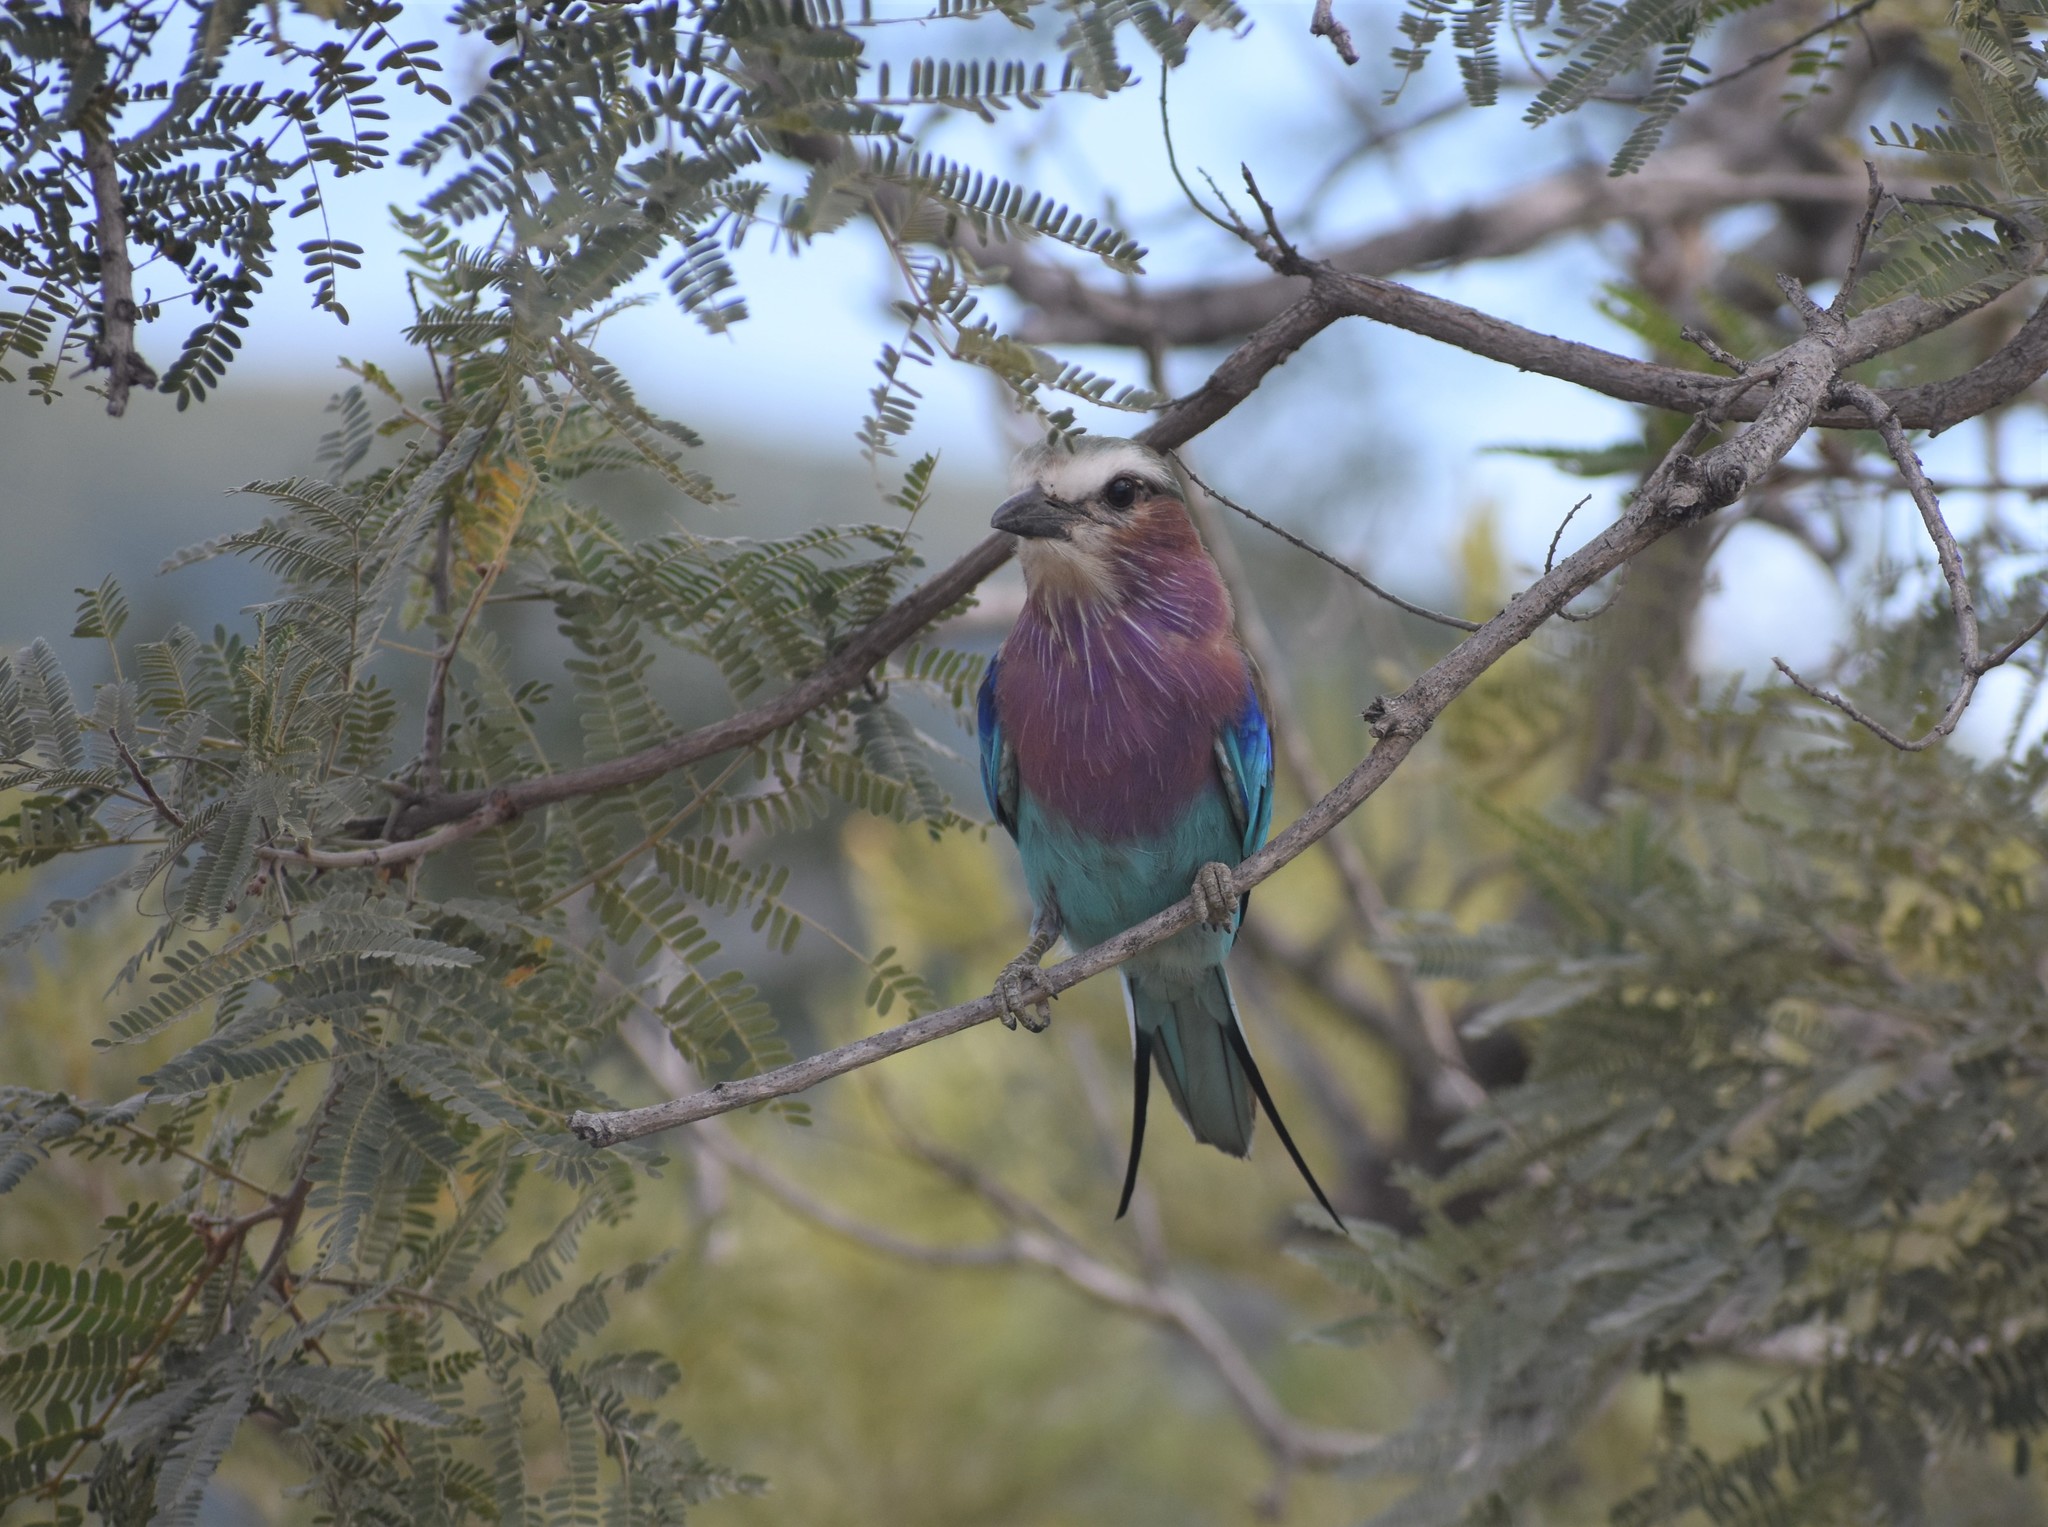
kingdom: Animalia
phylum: Chordata
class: Aves
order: Coraciiformes
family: Coraciidae
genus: Coracias
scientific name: Coracias caudatus
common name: Lilac-breasted roller
